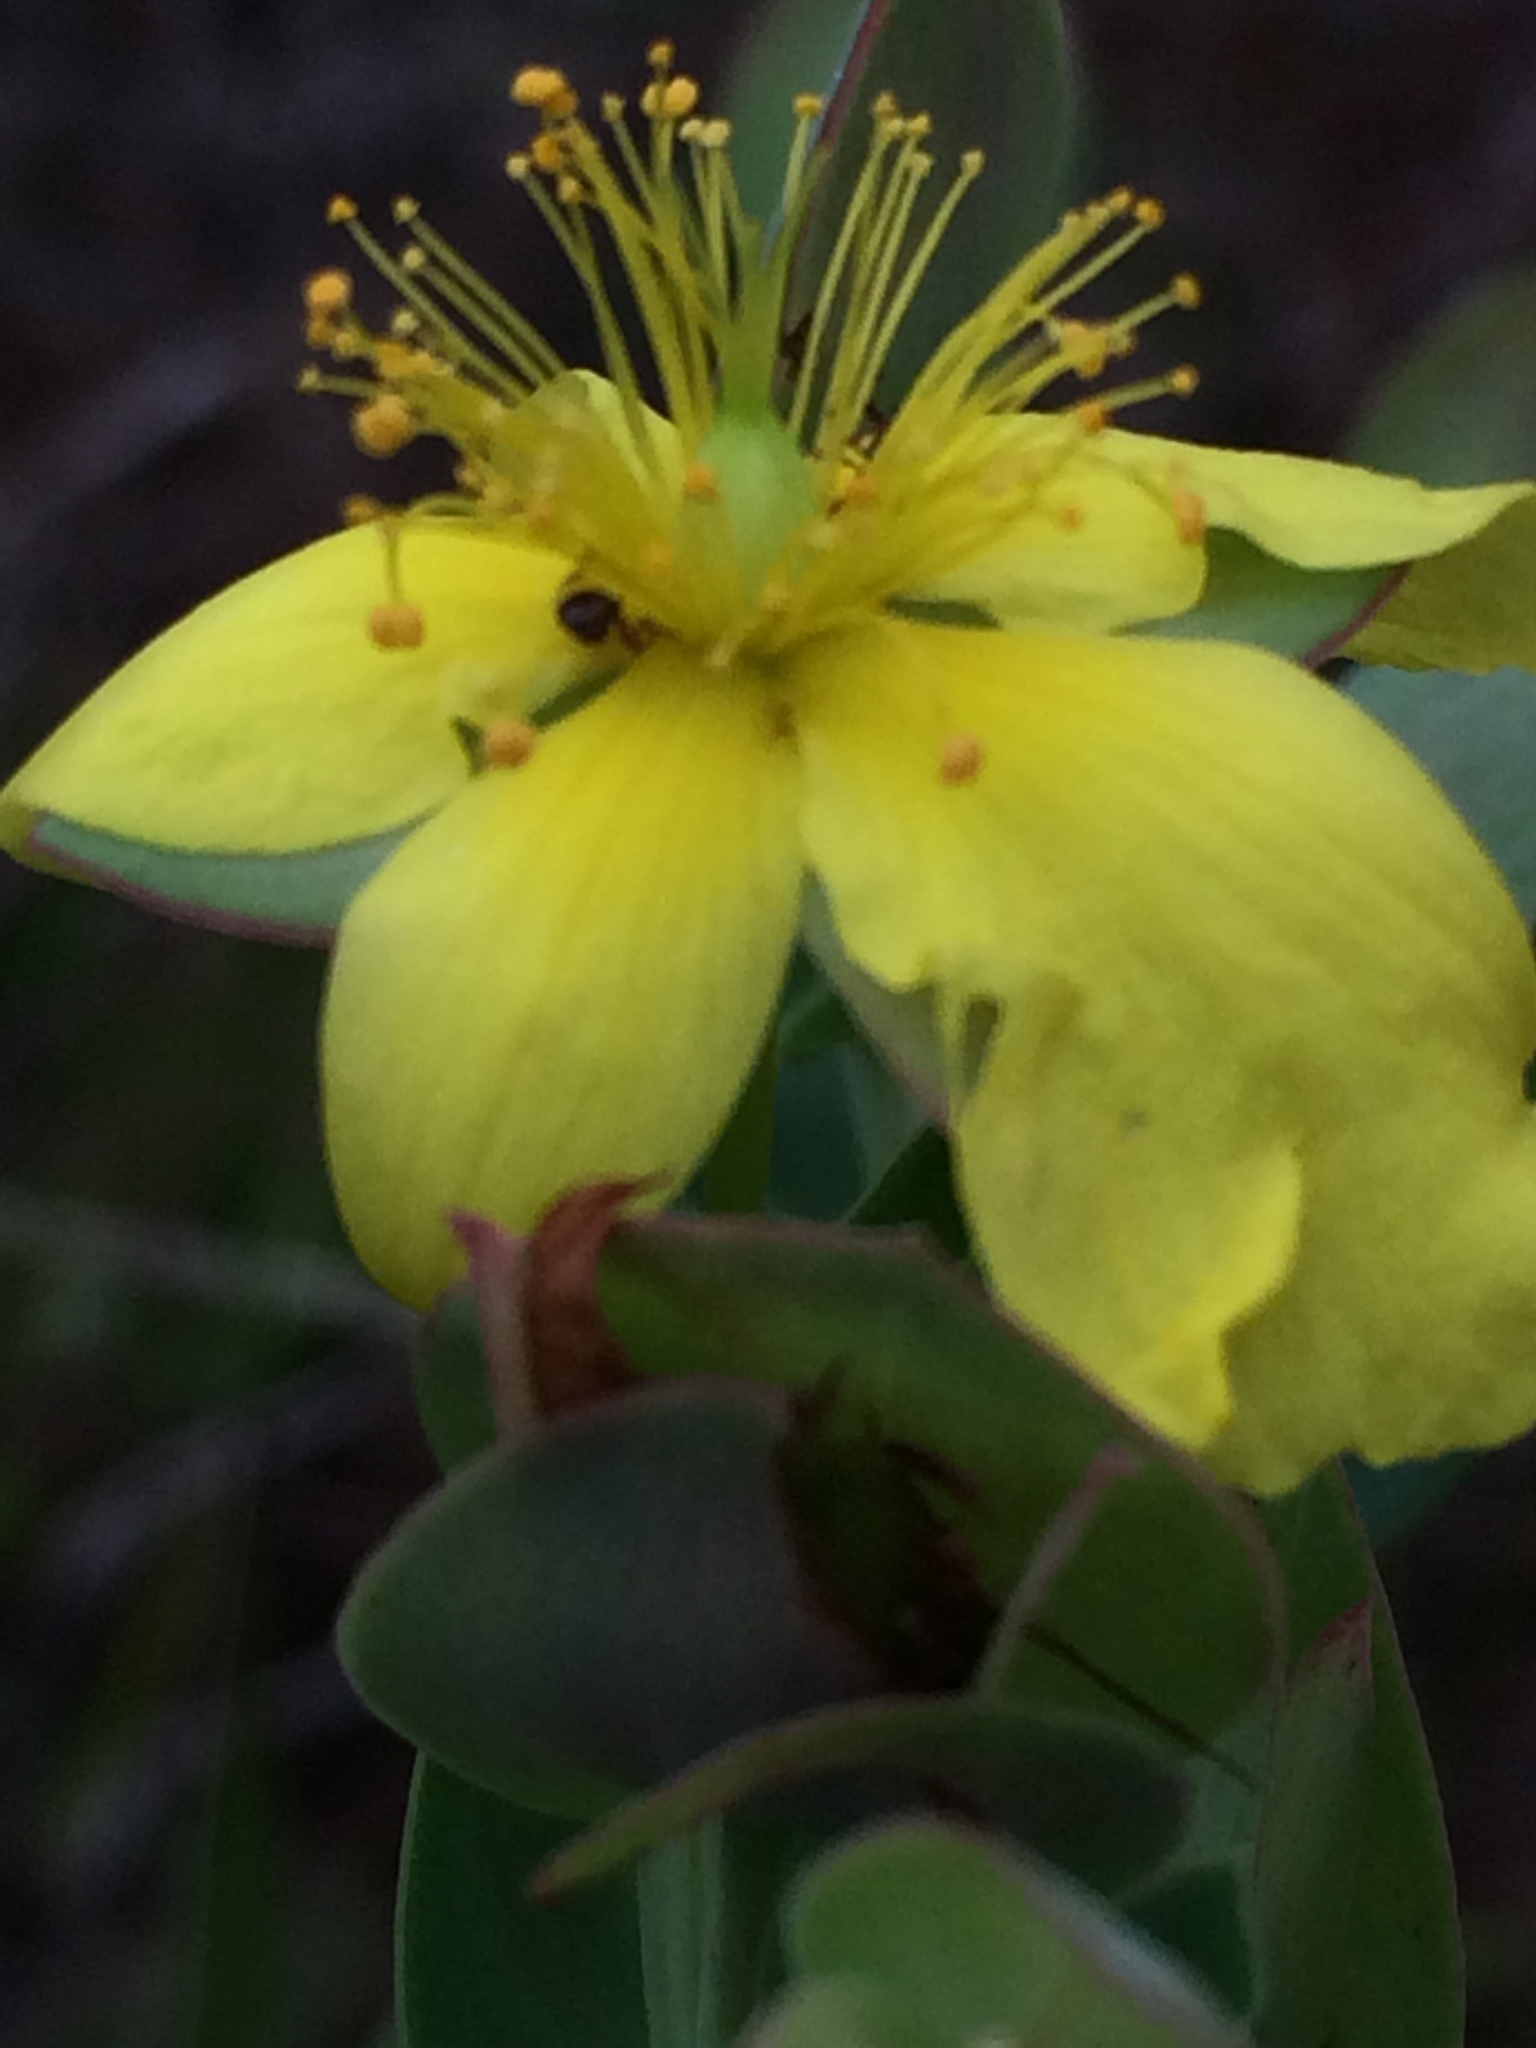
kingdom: Plantae
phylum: Tracheophyta
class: Magnoliopsida
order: Malpighiales
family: Hypericaceae
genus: Hypericum
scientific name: Hypericum tetrapetalum
